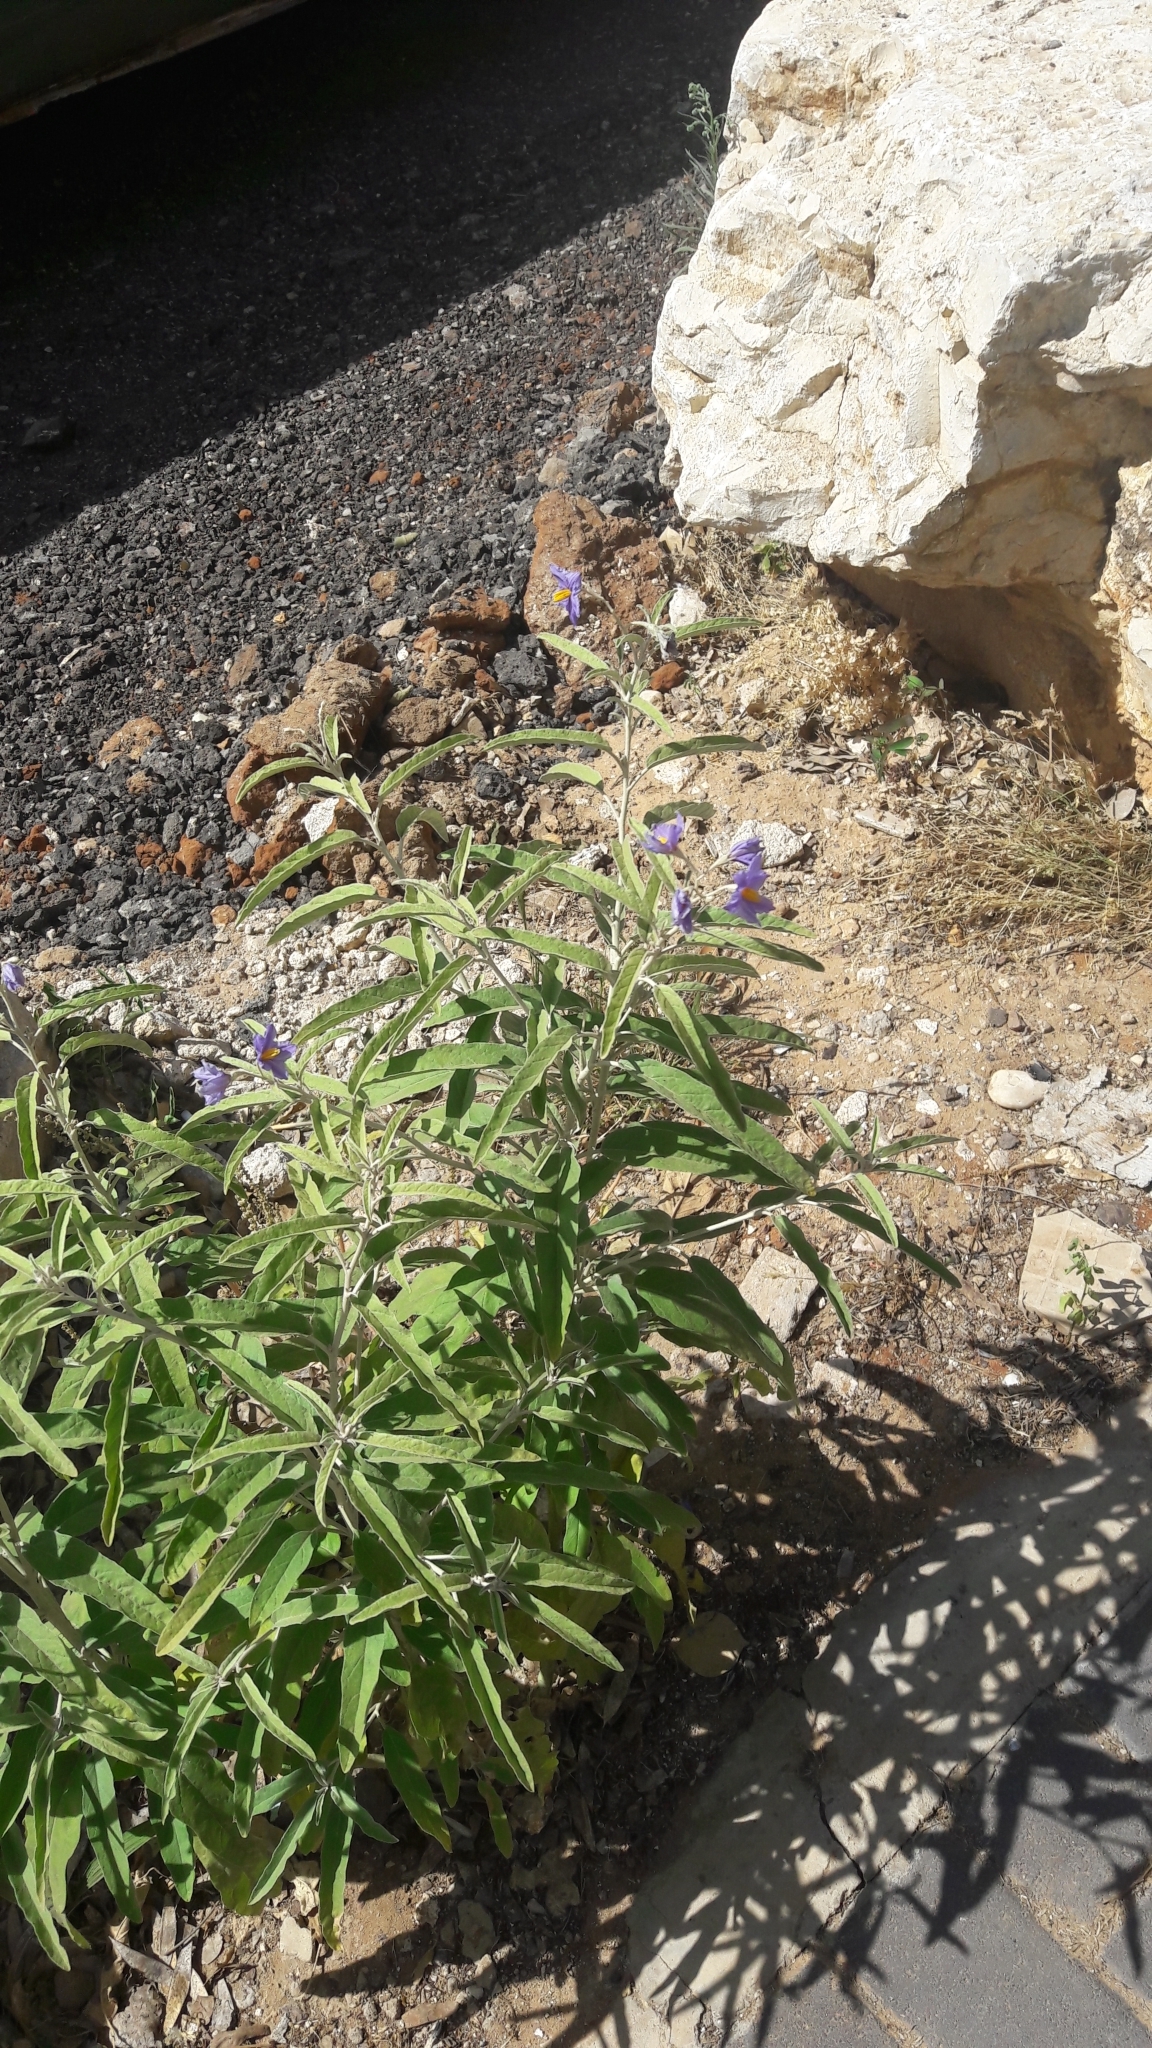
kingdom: Plantae
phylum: Tracheophyta
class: Magnoliopsida
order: Solanales
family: Solanaceae
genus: Solanum
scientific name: Solanum elaeagnifolium
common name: Silverleaf nightshade
